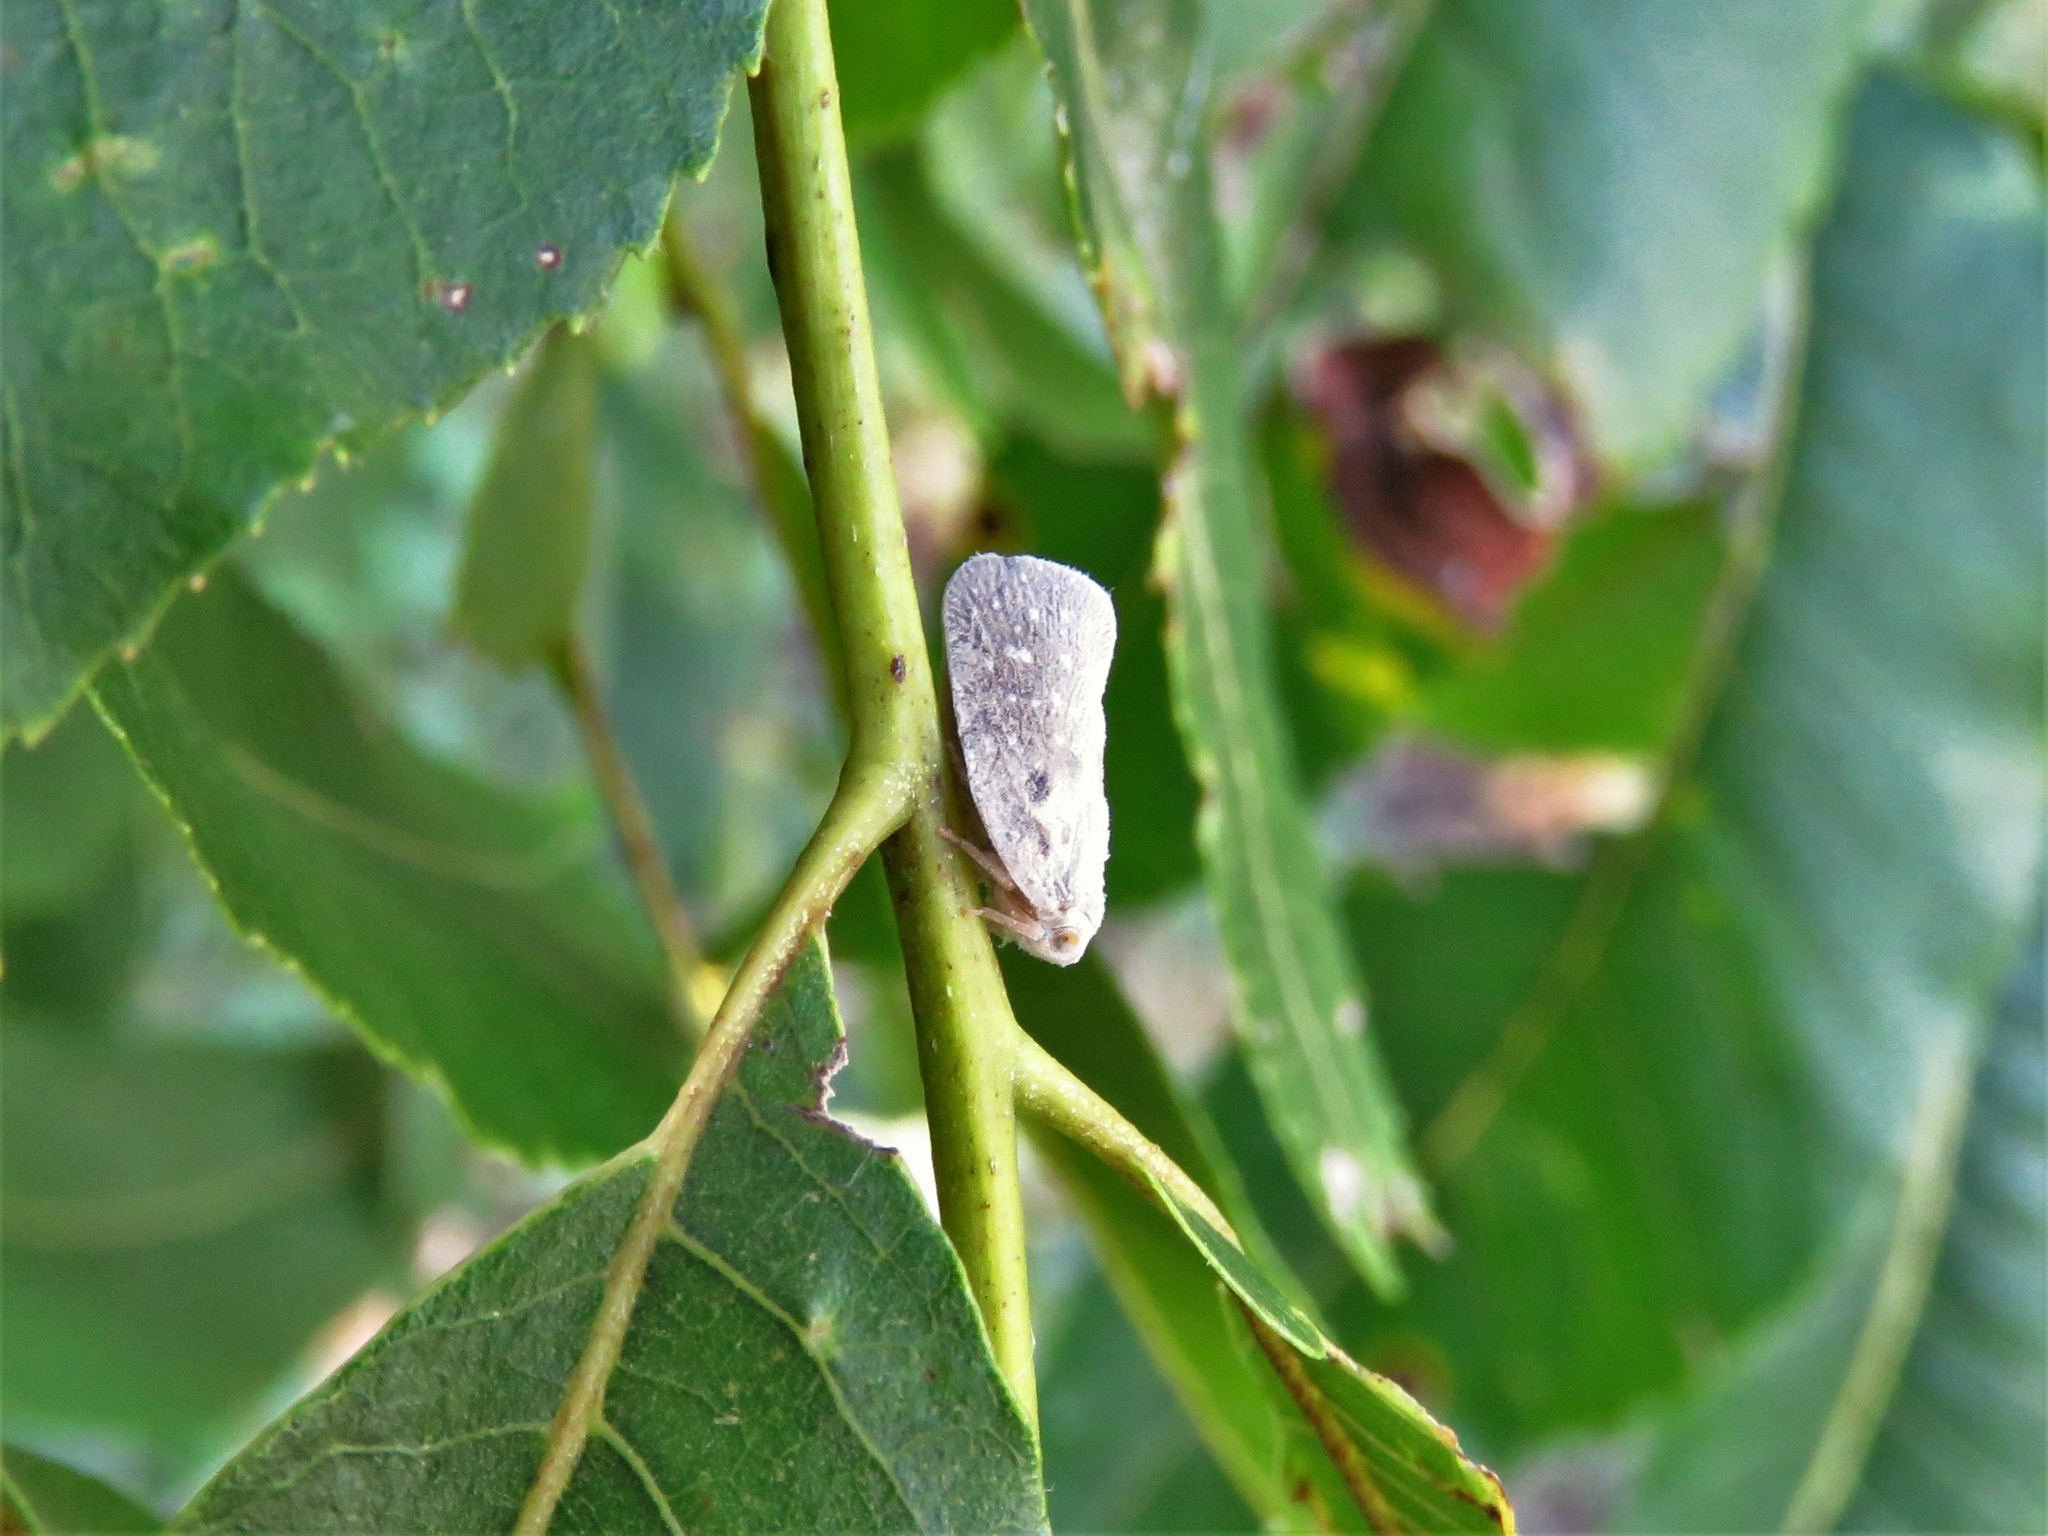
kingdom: Animalia
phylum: Arthropoda
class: Insecta
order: Hemiptera
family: Flatidae
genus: Metcalfa
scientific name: Metcalfa pruinosa
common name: Citrus flatid planthopper
